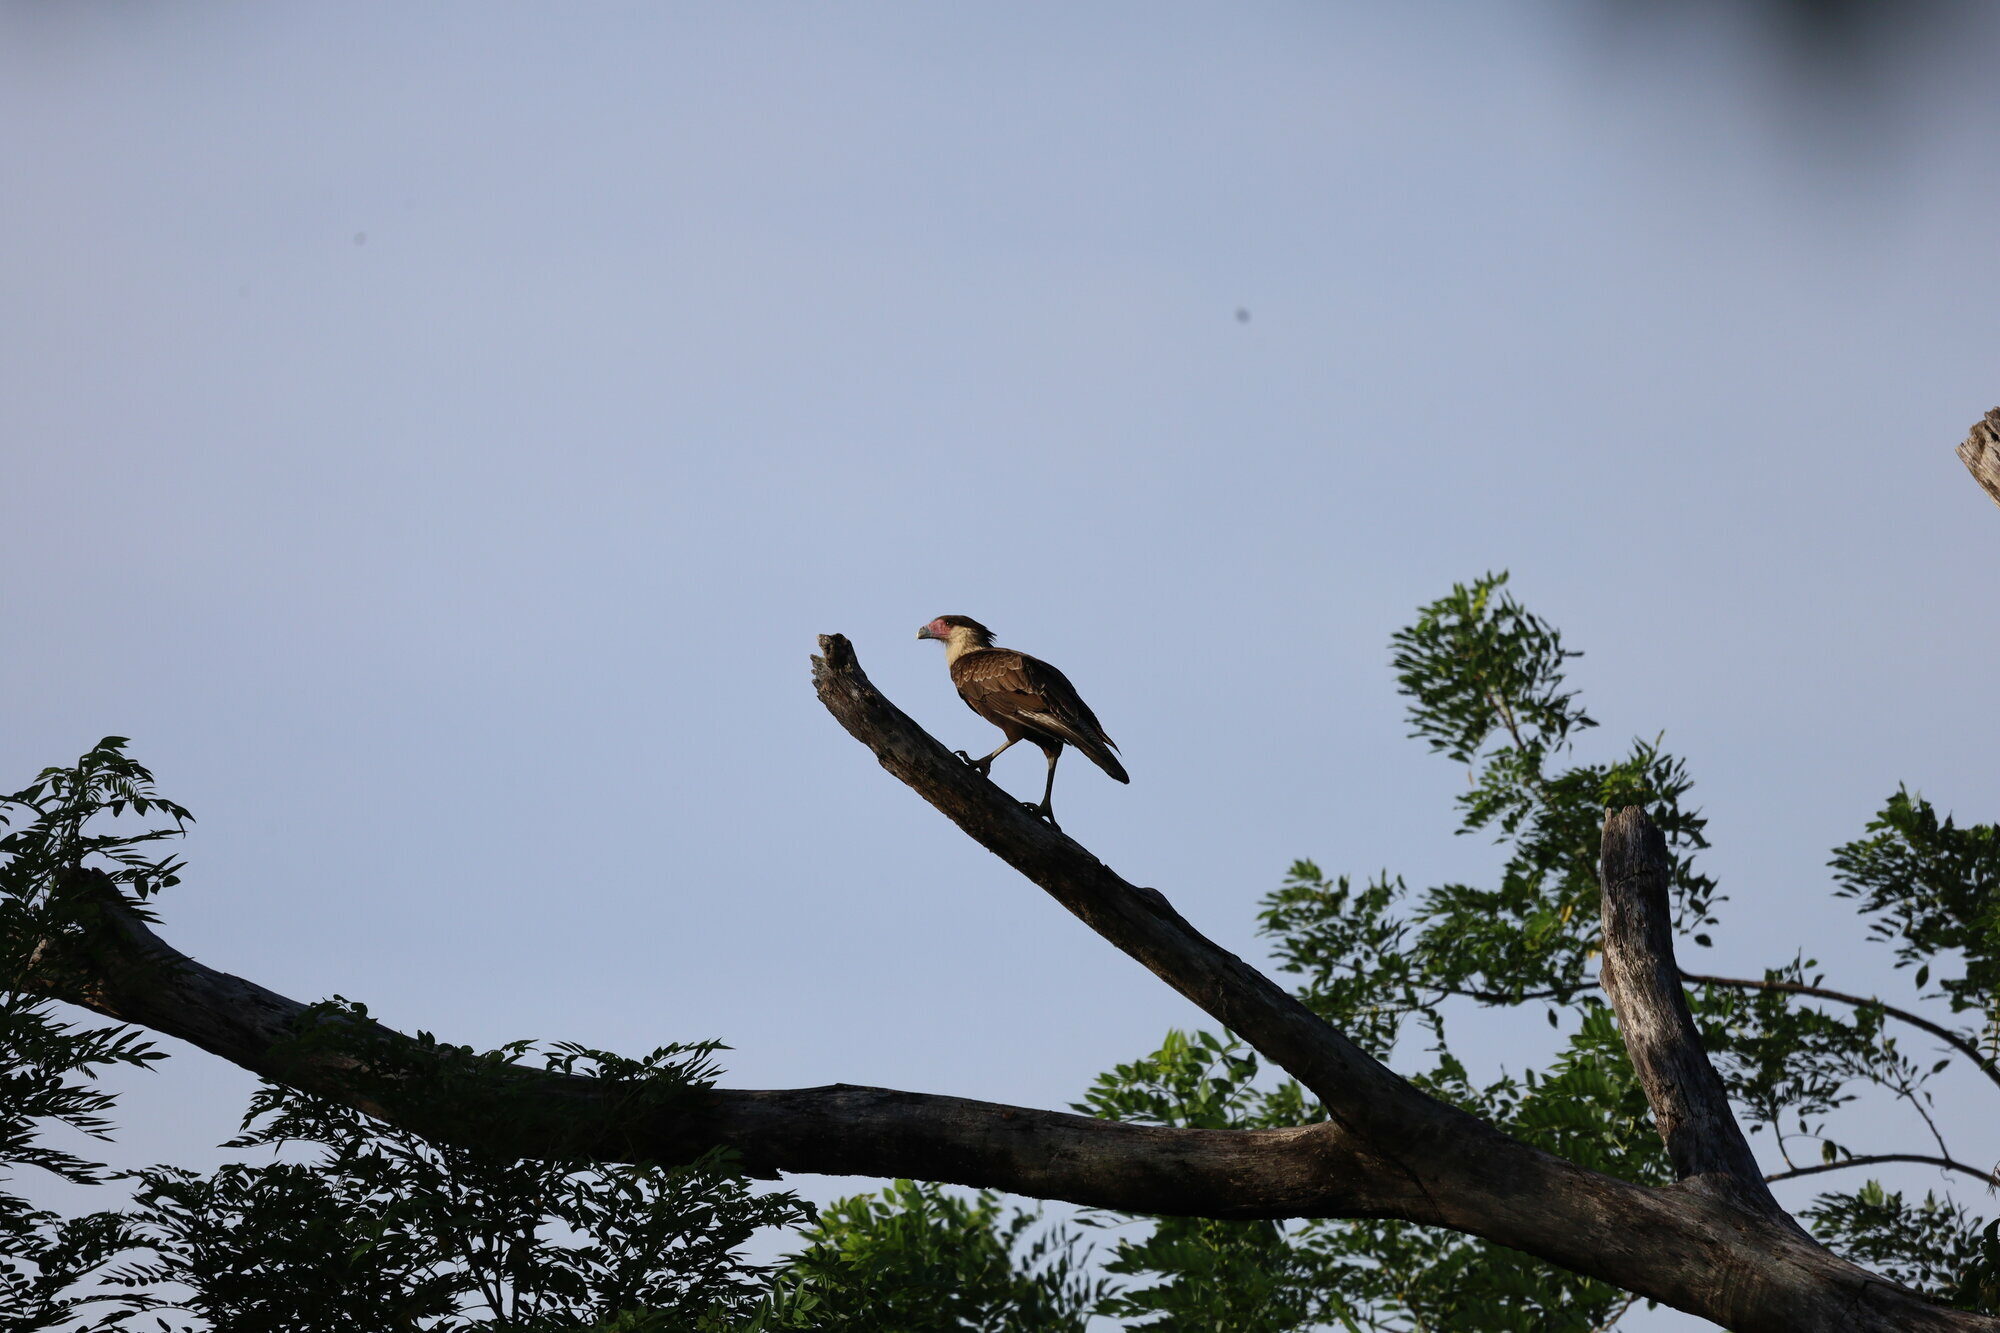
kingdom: Animalia
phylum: Chordata
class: Aves
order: Falconiformes
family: Falconidae
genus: Caracara
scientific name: Caracara plancus
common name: Southern caracara
